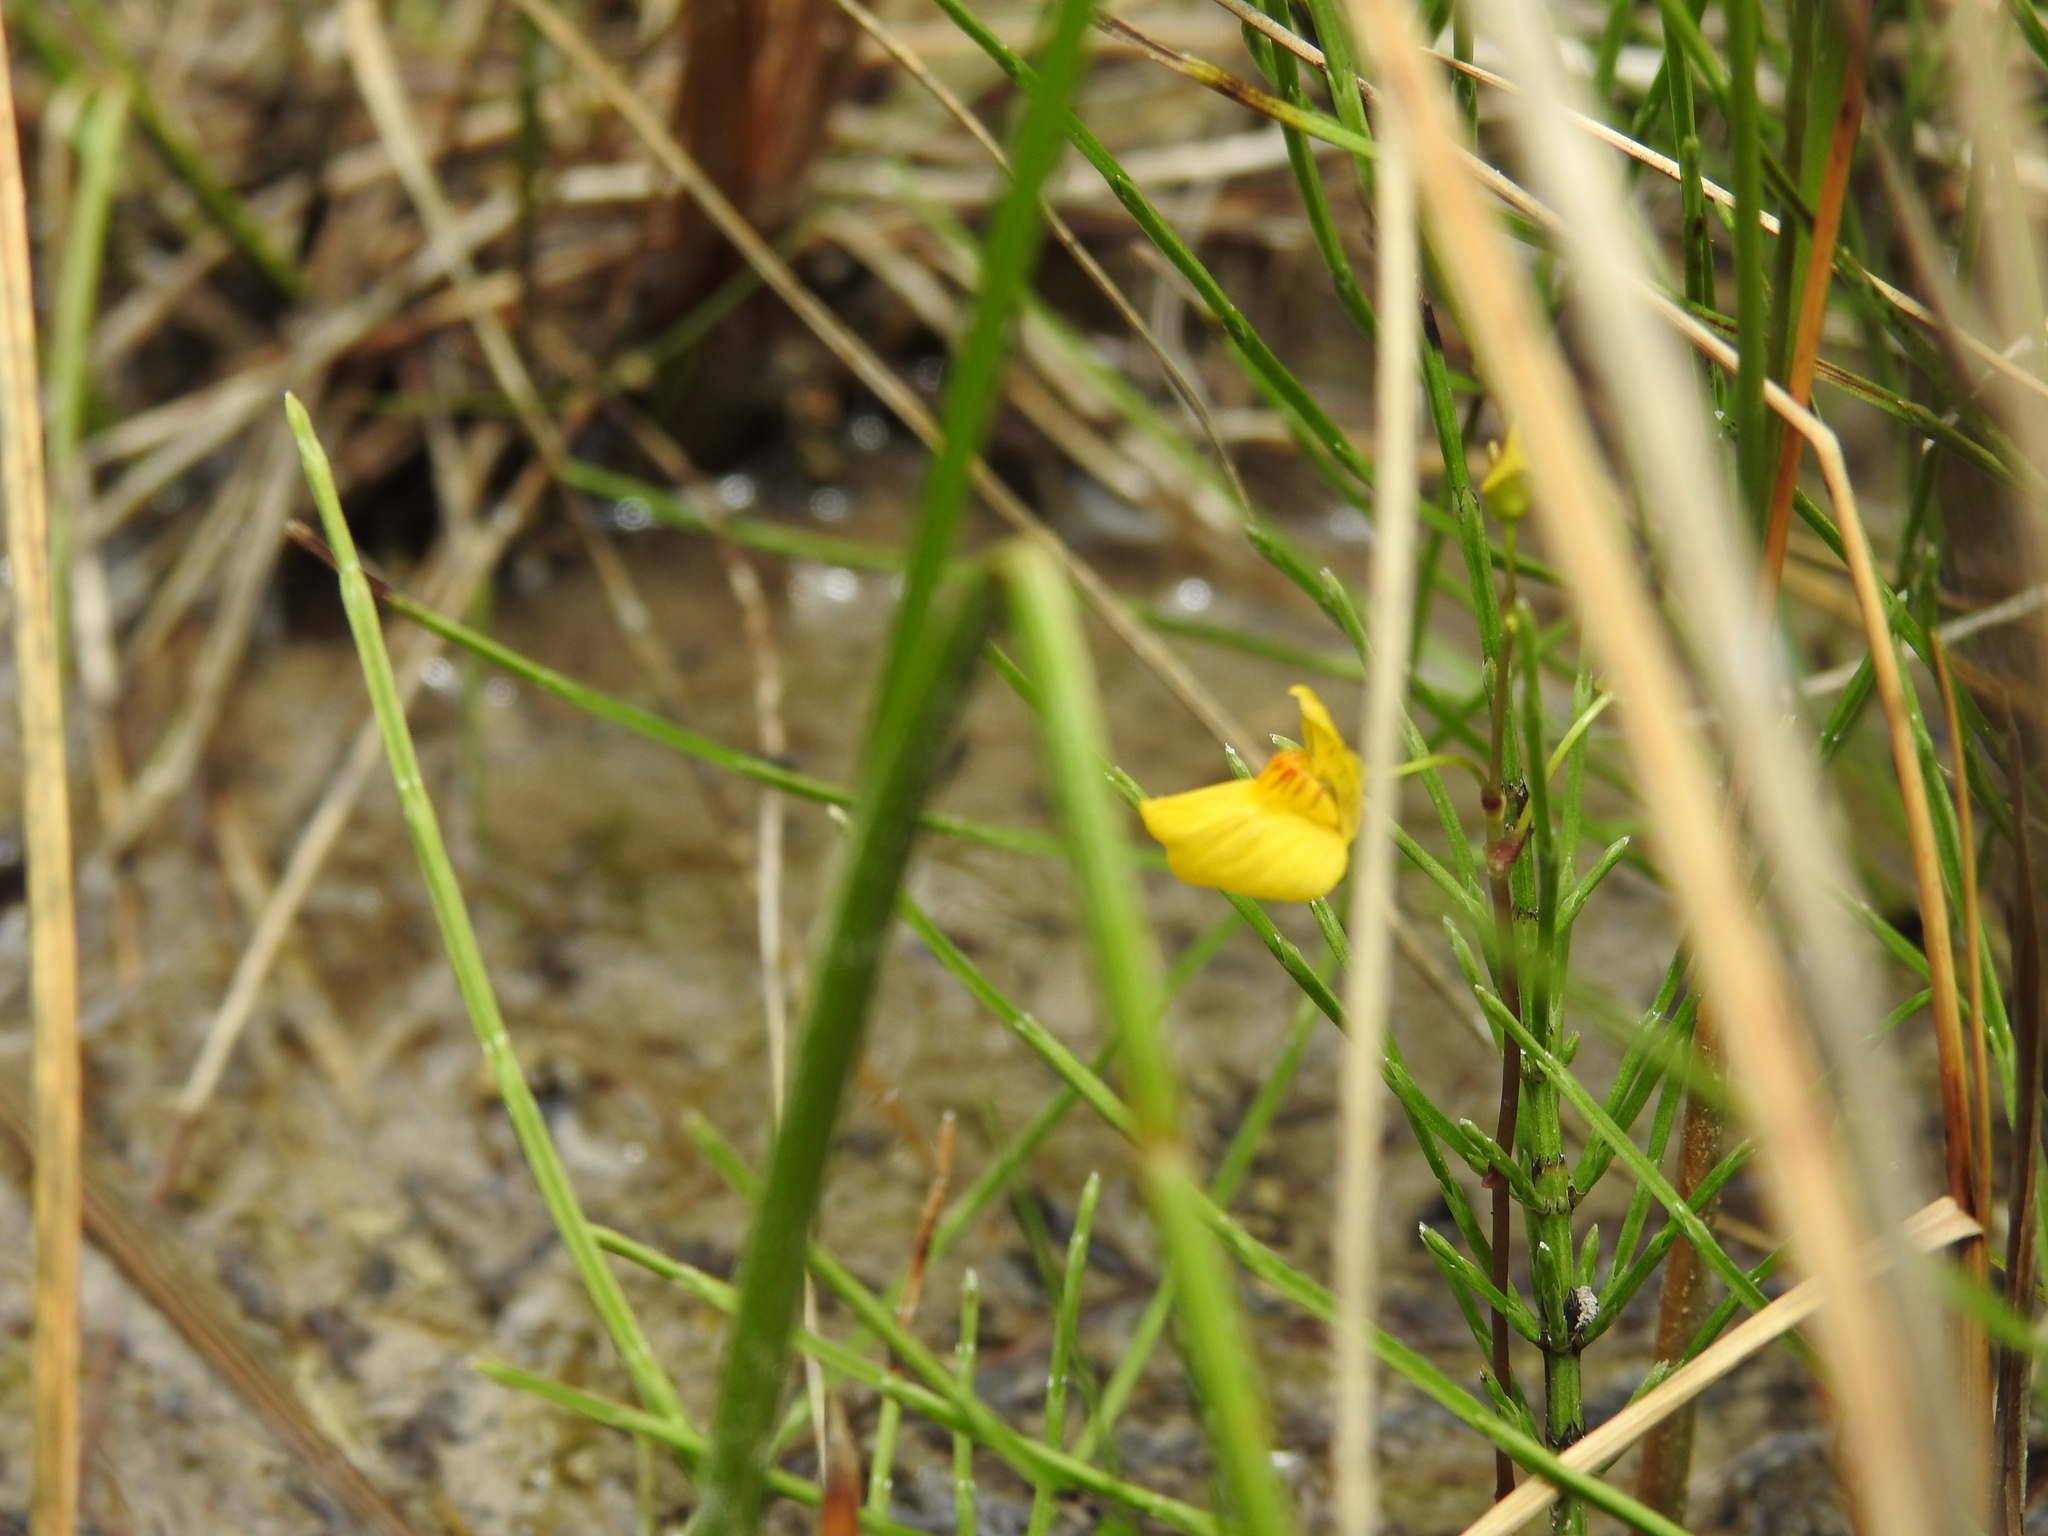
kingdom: Plantae
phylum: Tracheophyta
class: Magnoliopsida
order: Lamiales
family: Lentibulariaceae
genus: Utricularia
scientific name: Utricularia ochroleuca
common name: Pale bladderwort
